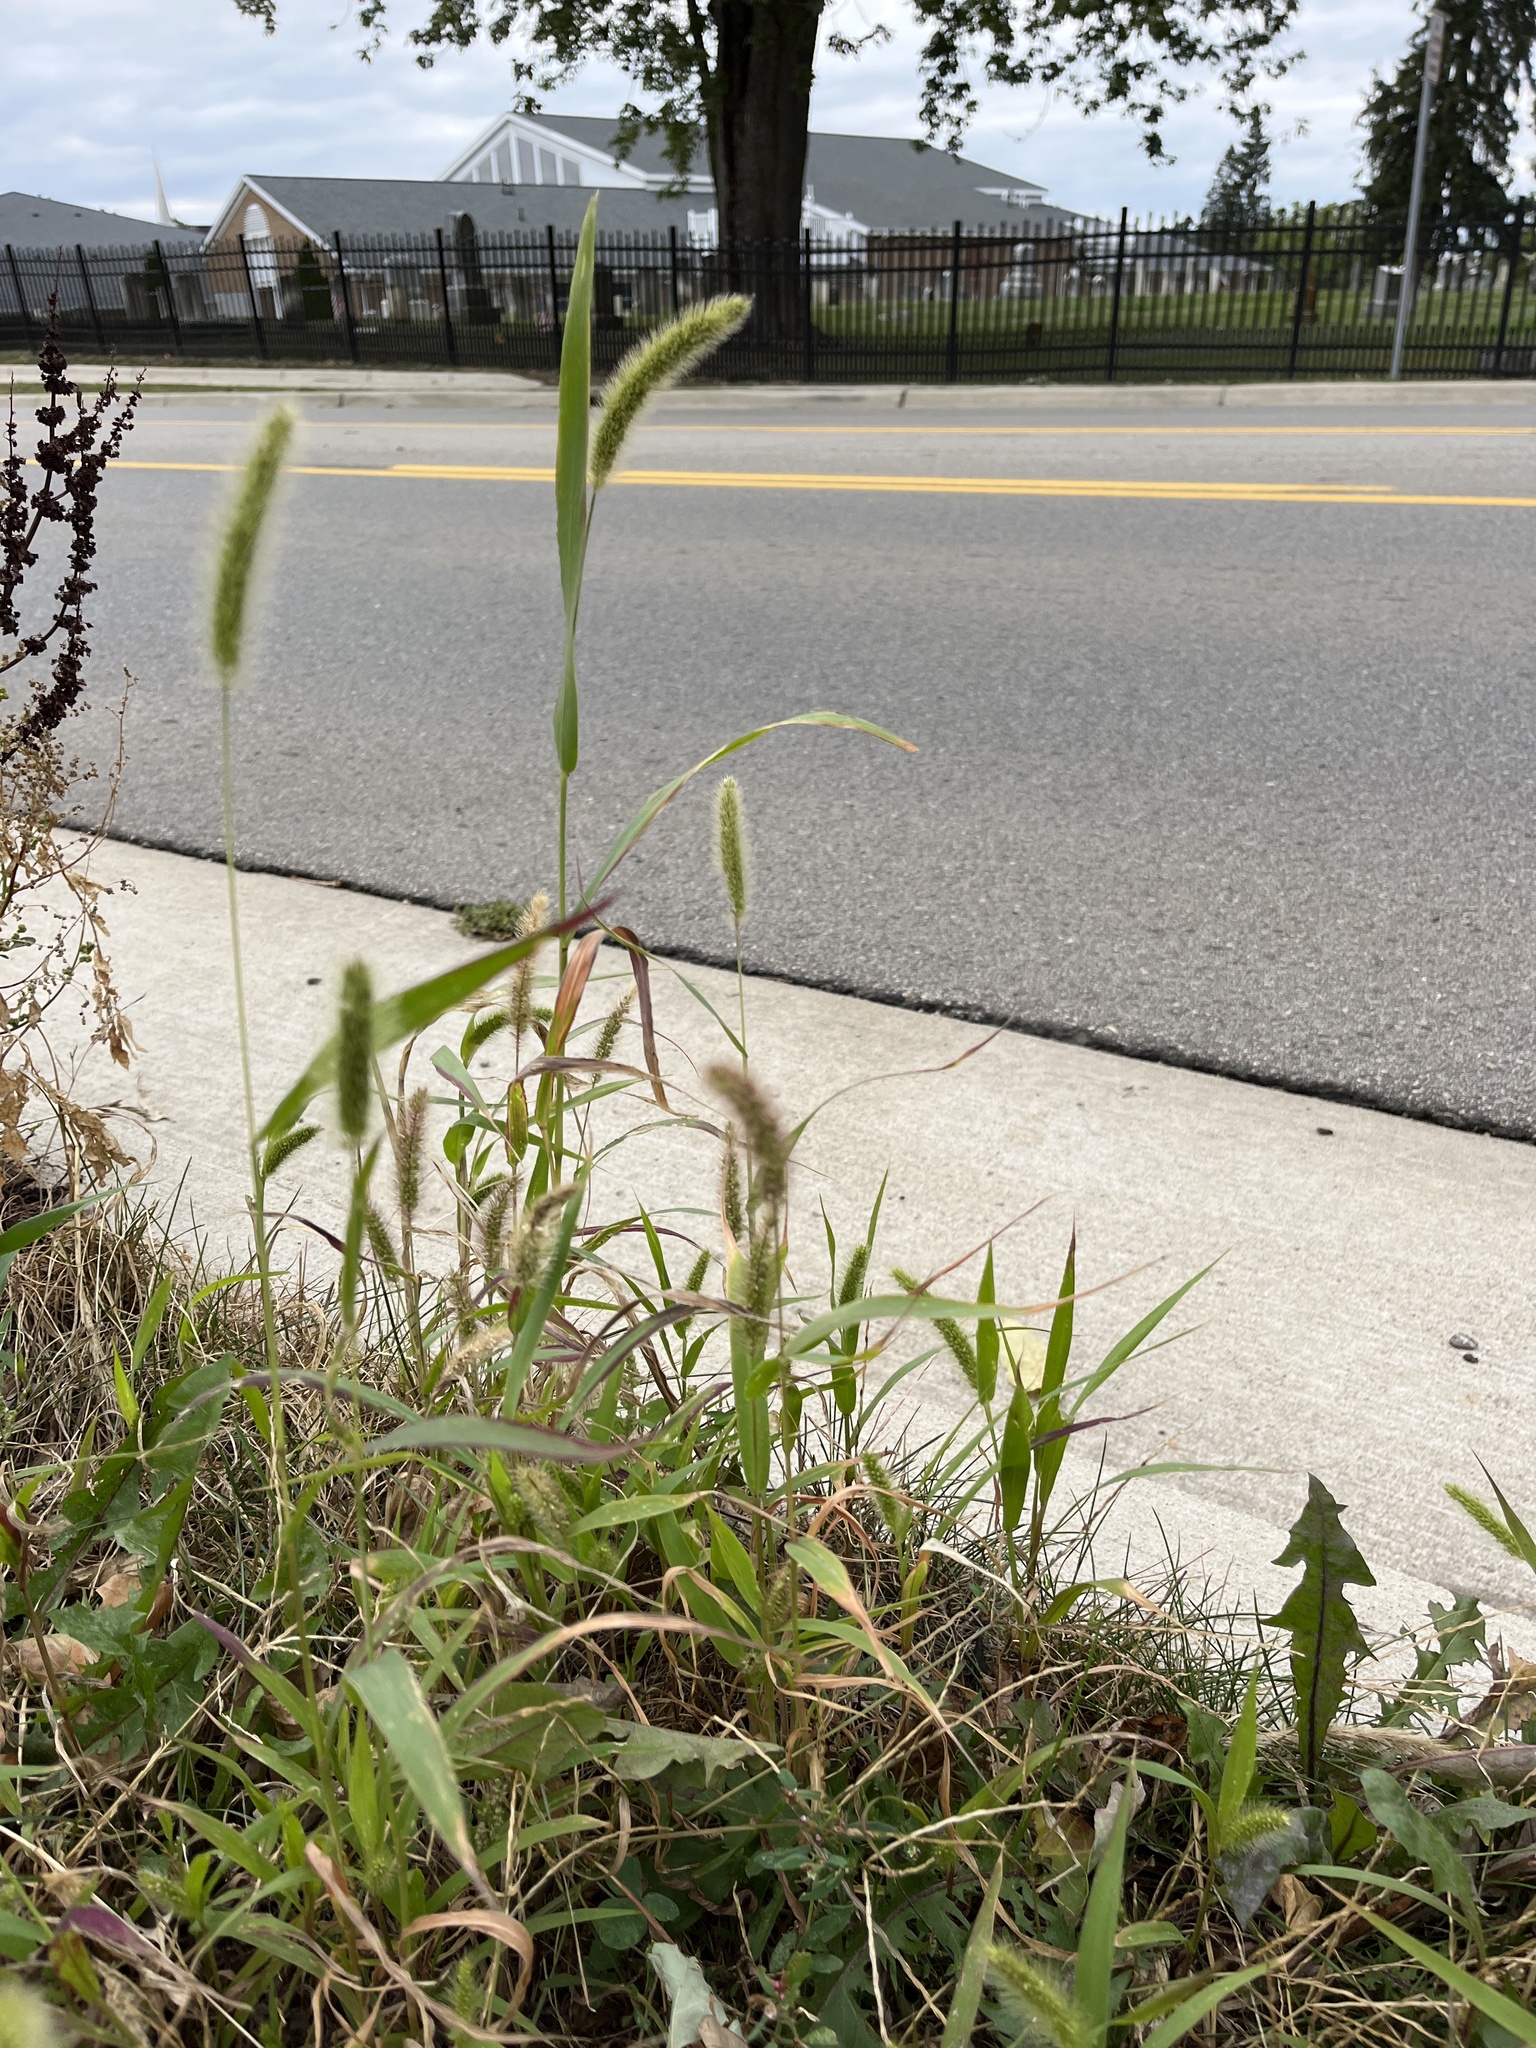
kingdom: Plantae
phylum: Tracheophyta
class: Liliopsida
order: Poales
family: Poaceae
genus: Setaria
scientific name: Setaria viridis
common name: Green bristlegrass
